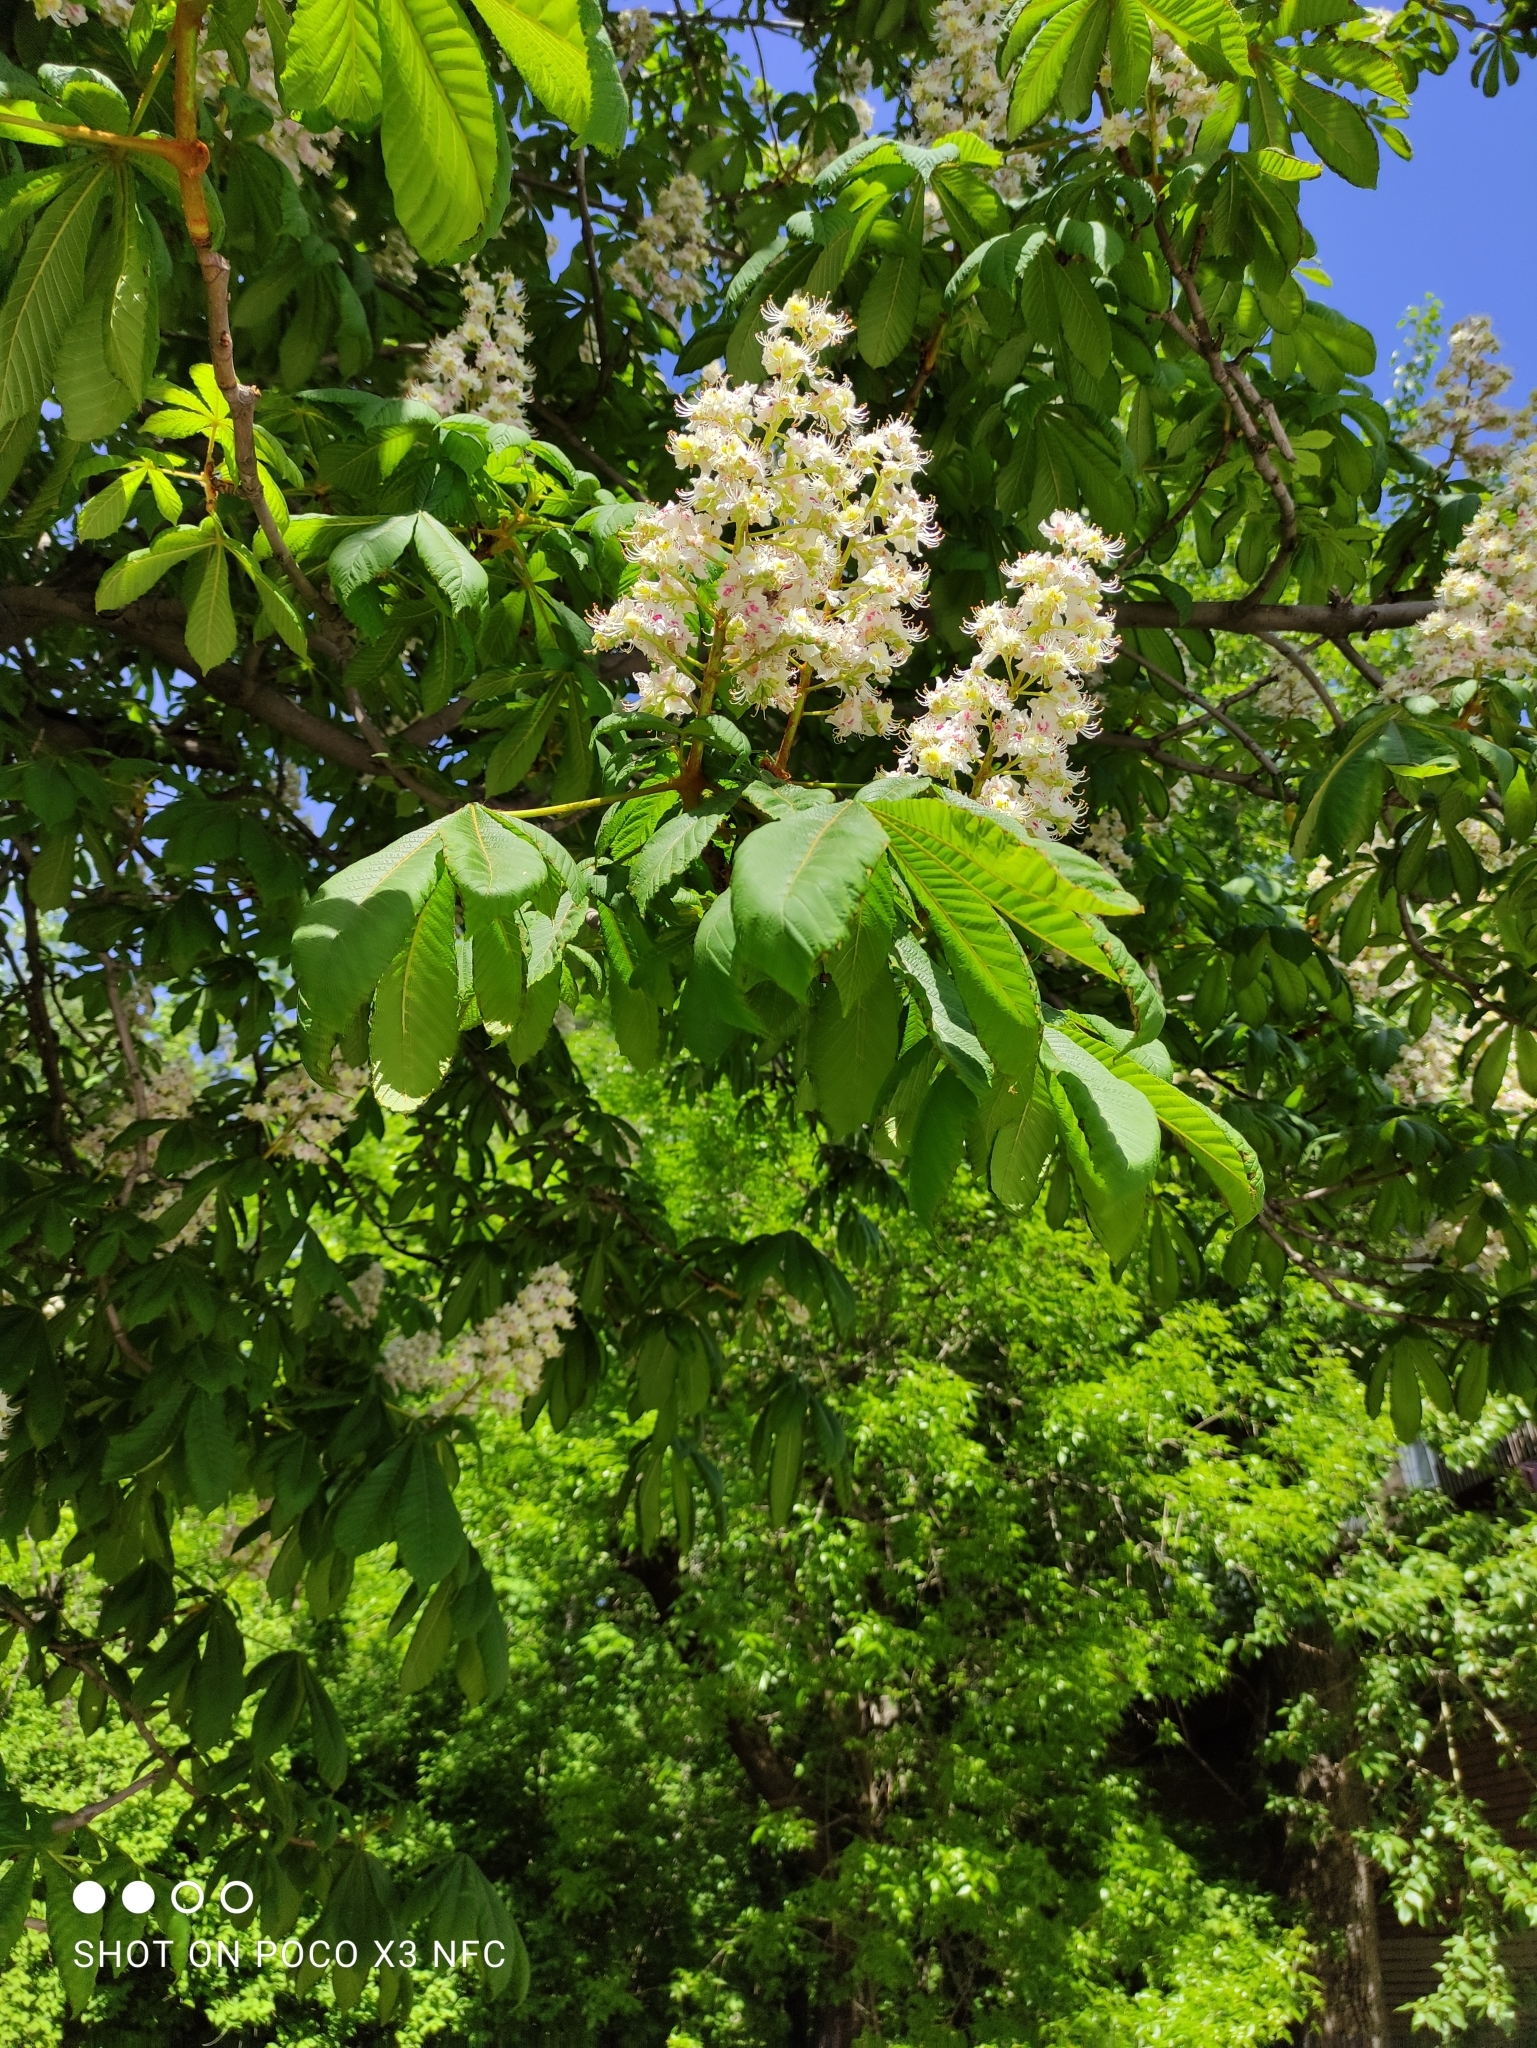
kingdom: Plantae
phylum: Tracheophyta
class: Magnoliopsida
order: Sapindales
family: Sapindaceae
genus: Aesculus
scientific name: Aesculus hippocastanum
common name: Horse-chestnut
